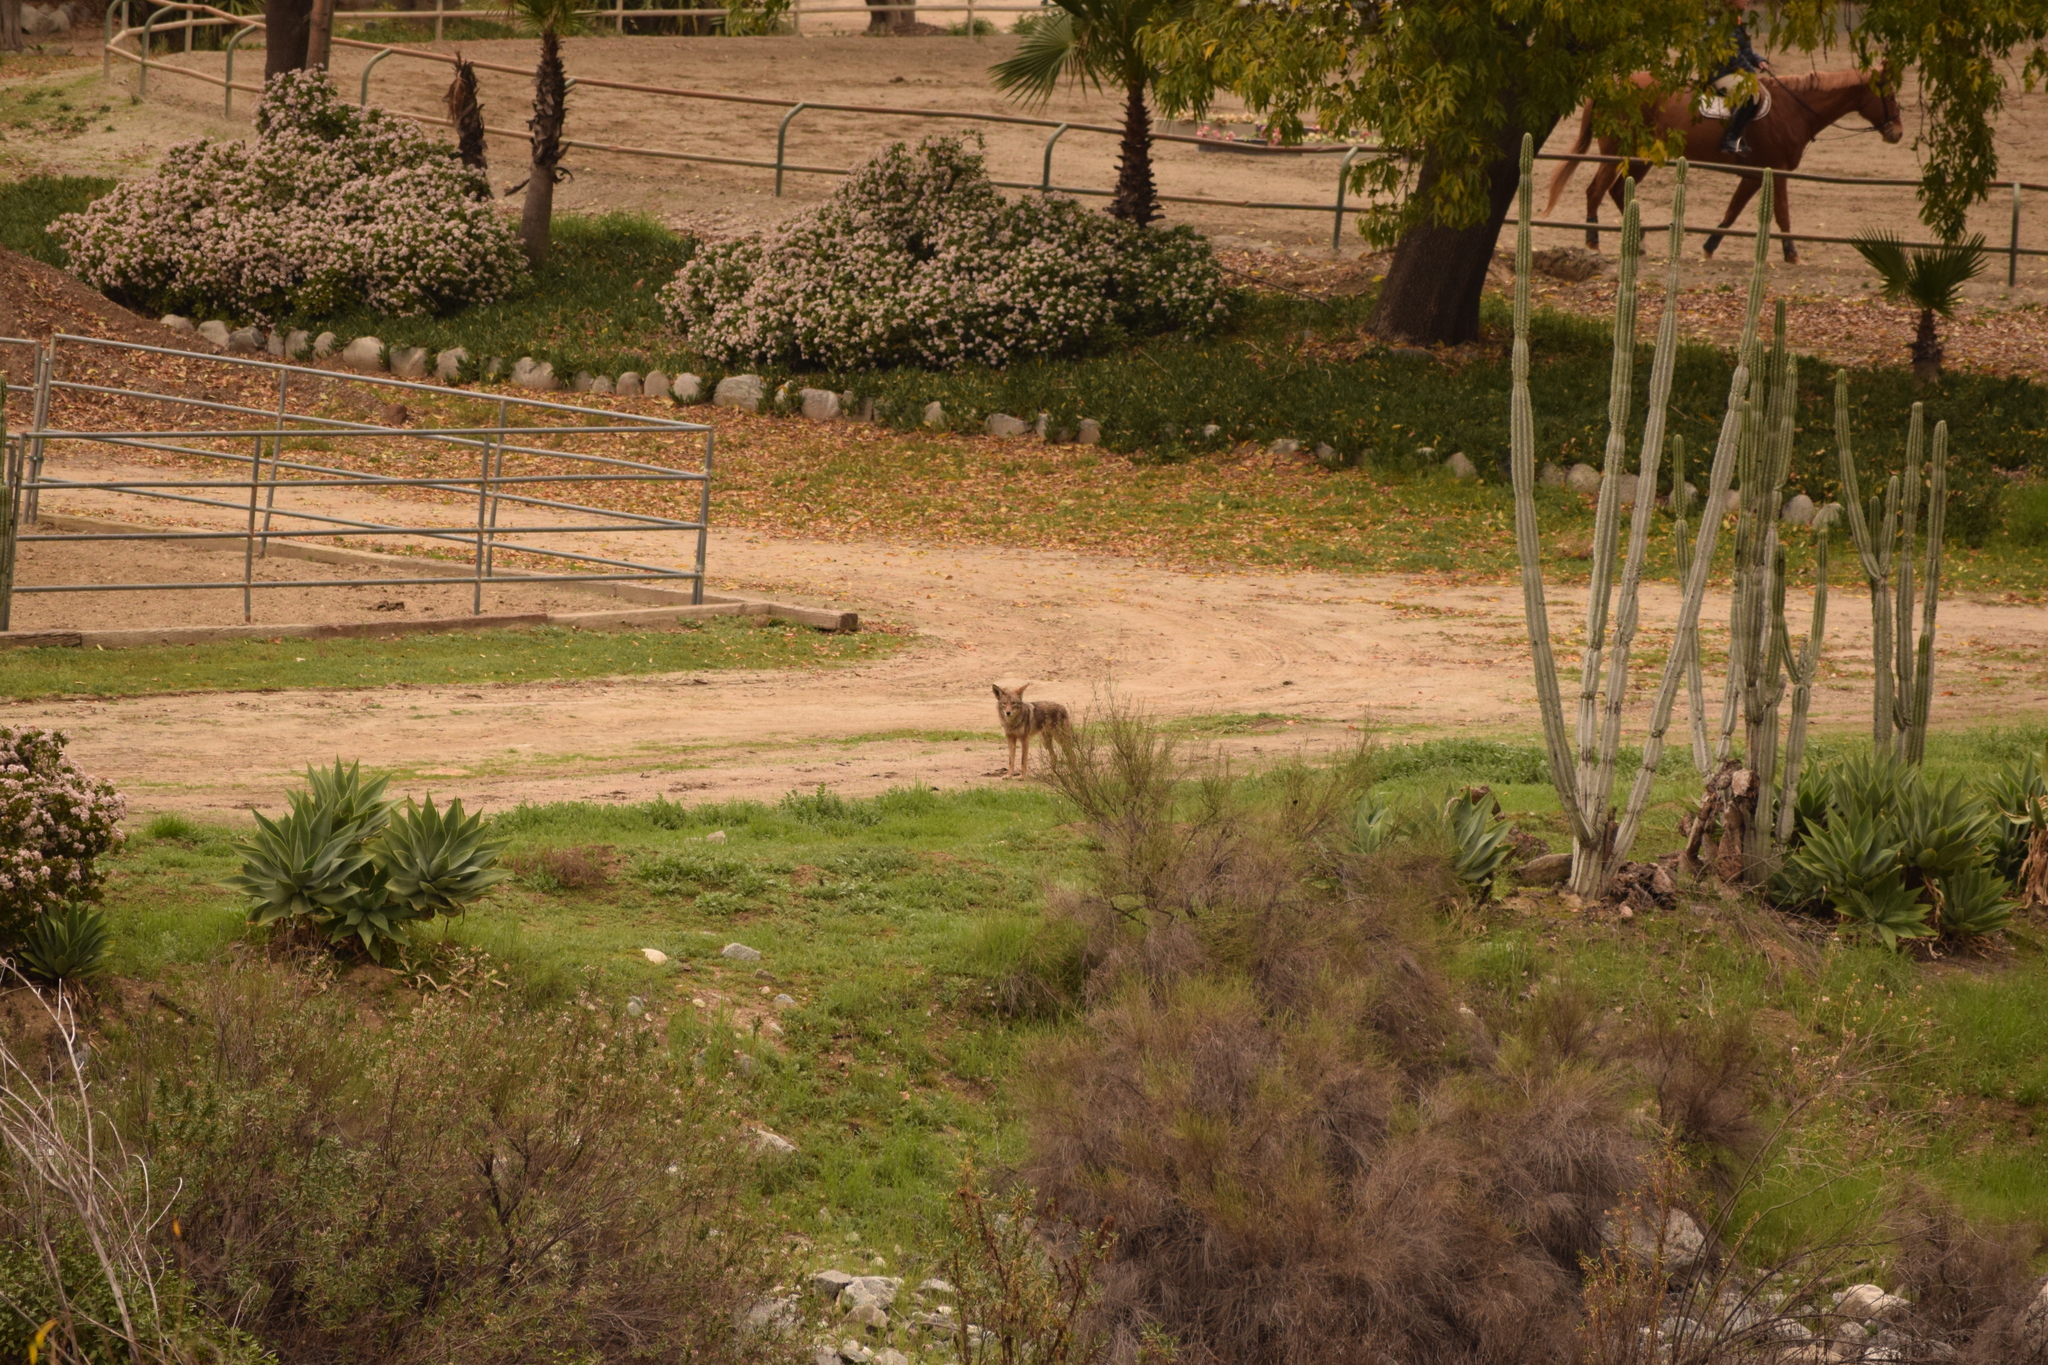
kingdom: Animalia
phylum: Chordata
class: Mammalia
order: Carnivora
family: Canidae
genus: Canis
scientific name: Canis latrans
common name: Coyote
